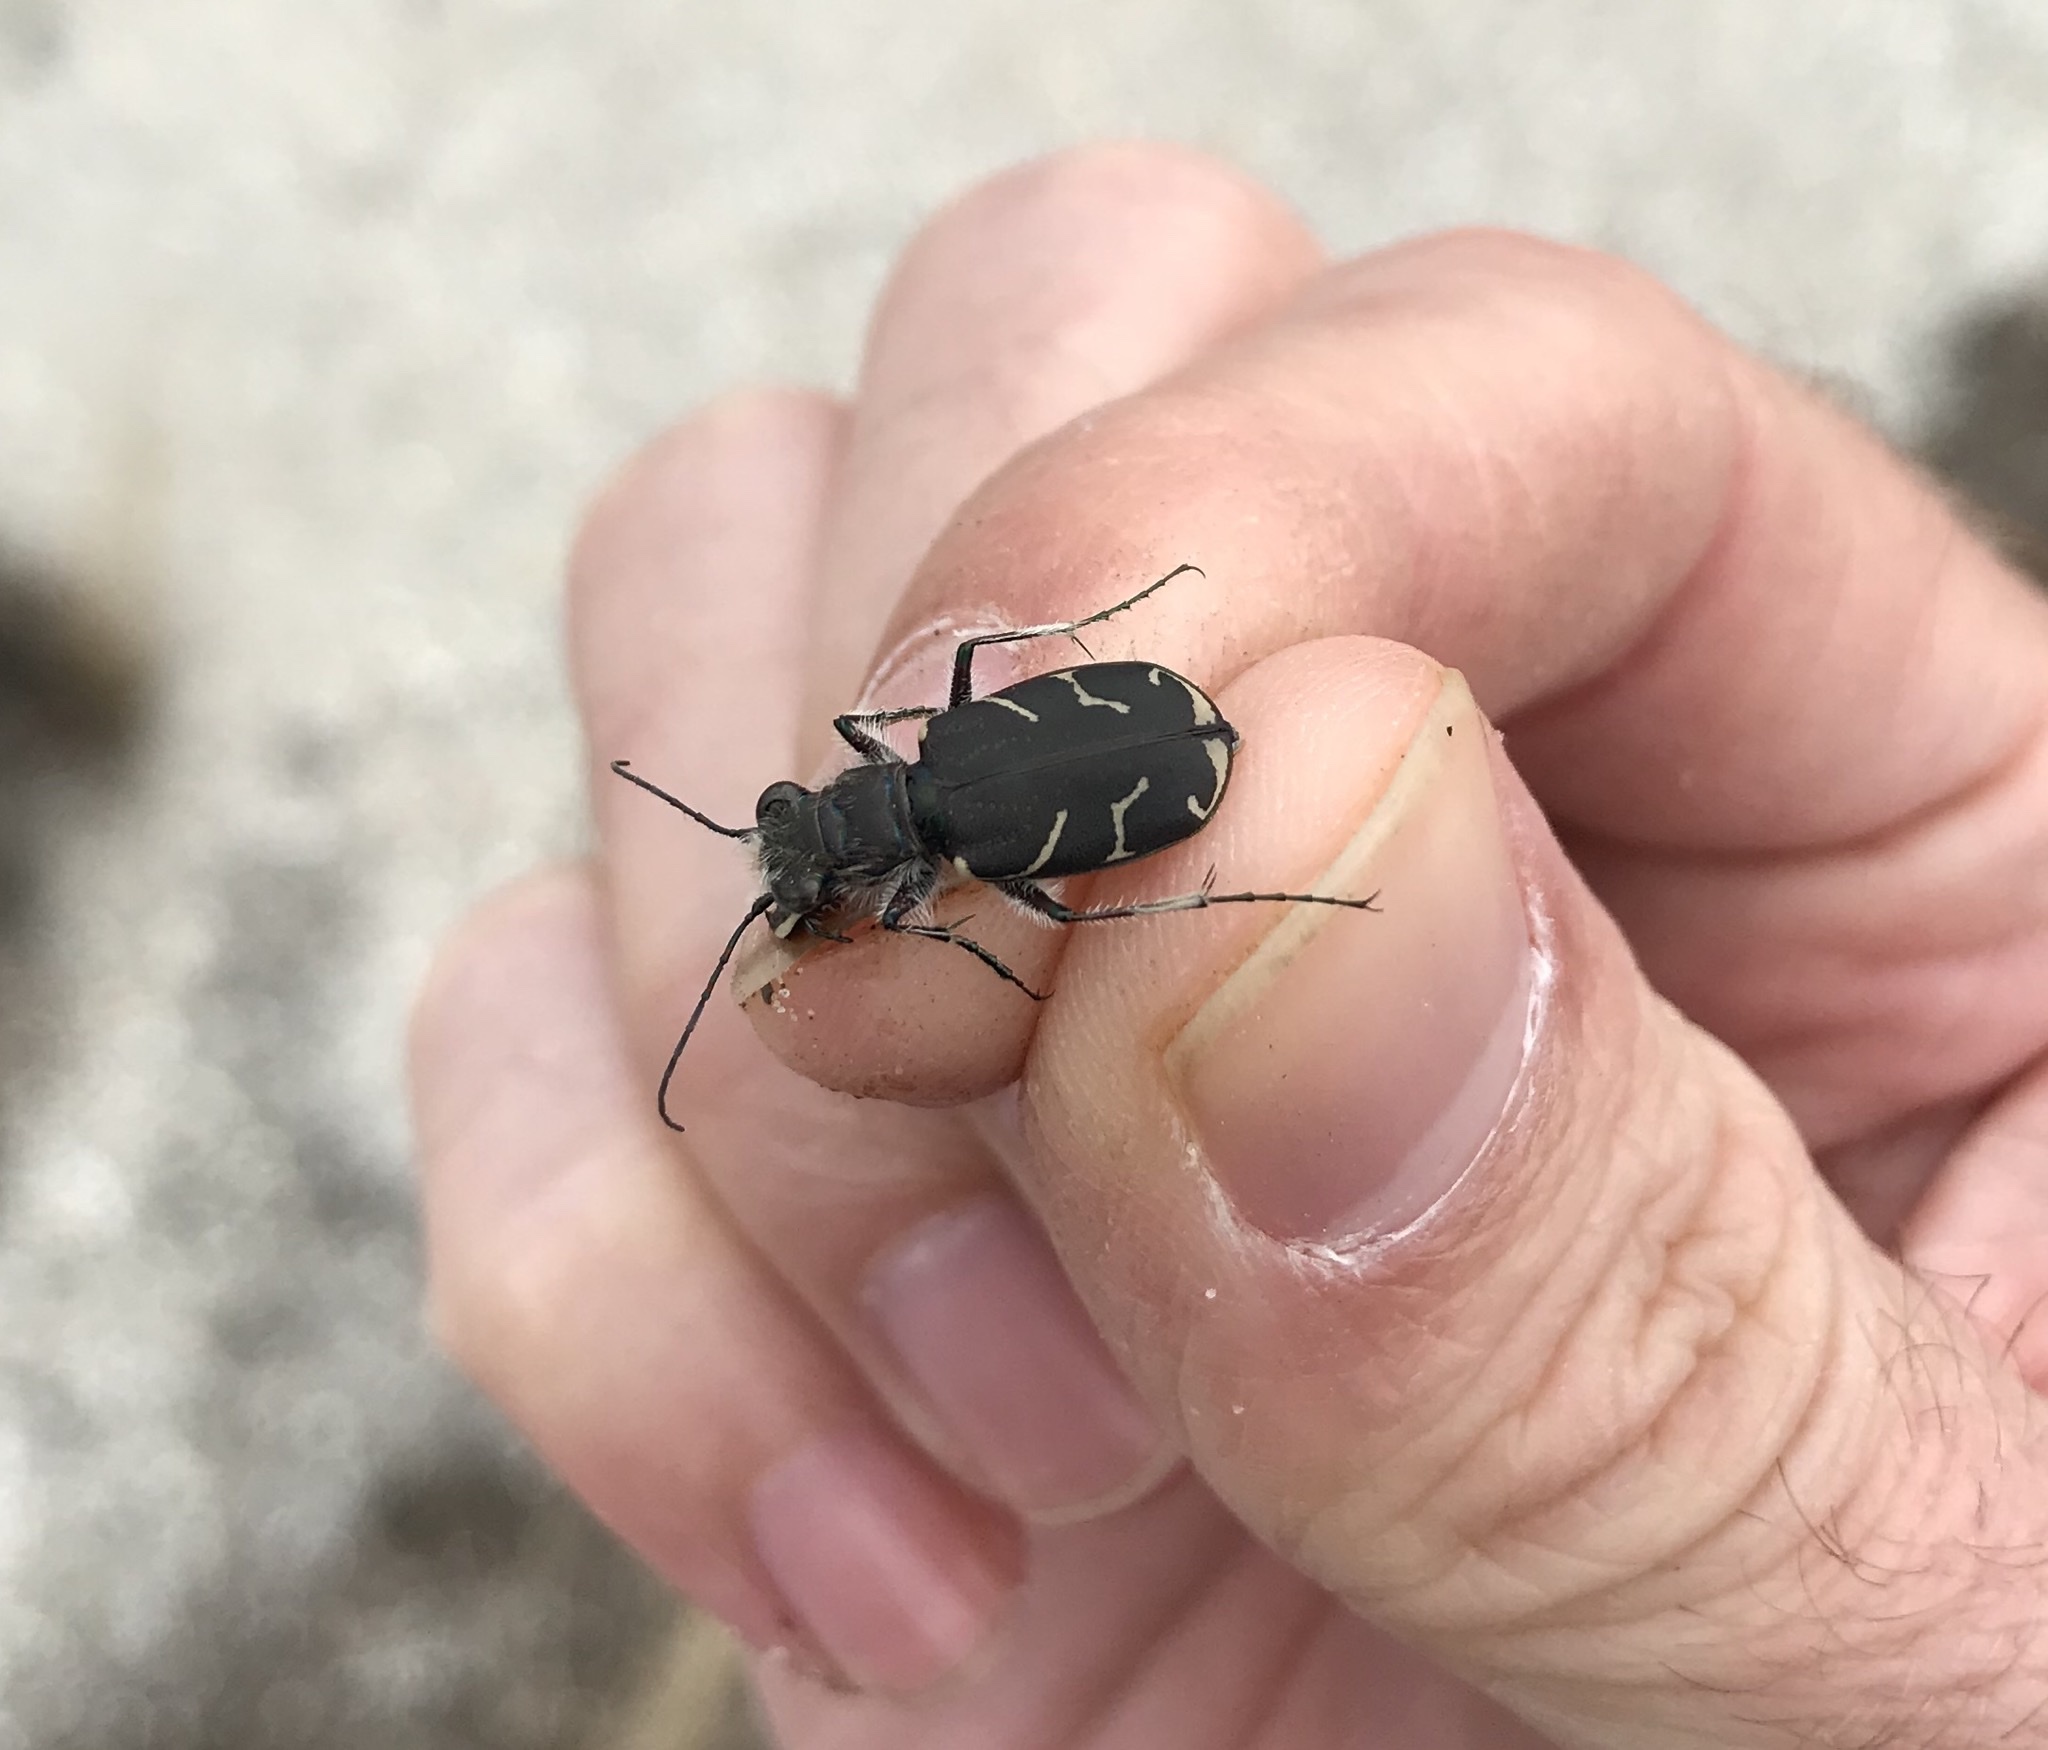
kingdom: Animalia
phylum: Arthropoda
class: Insecta
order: Coleoptera
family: Carabidae
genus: Cicindela
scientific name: Cicindela tranquebarica
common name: Oblique-lined tiger beetle
